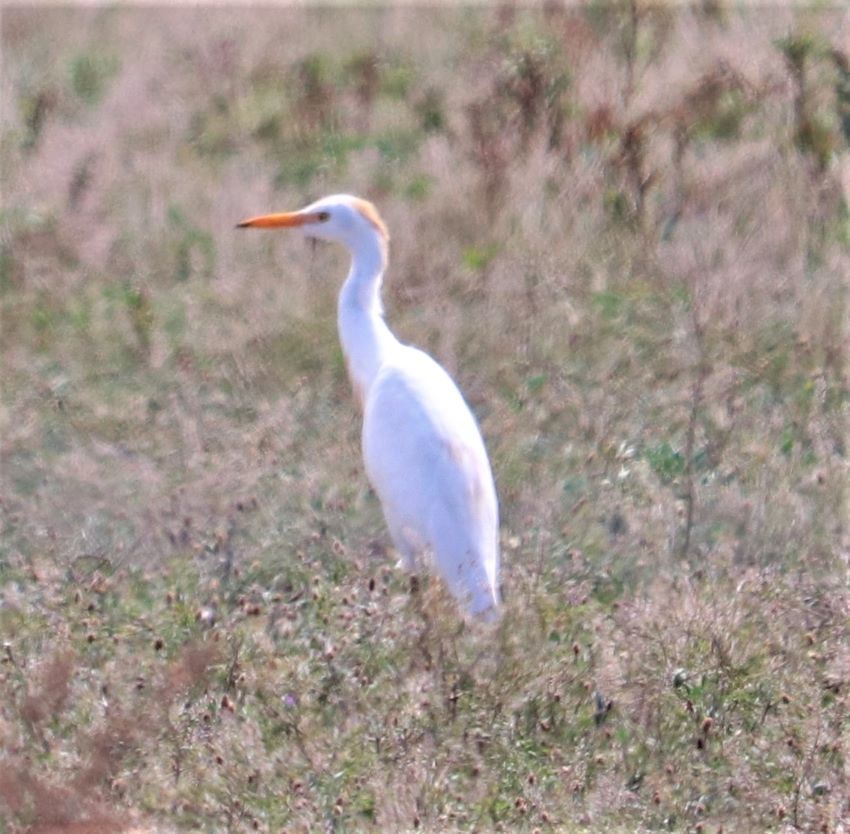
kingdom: Animalia
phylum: Chordata
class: Aves
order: Pelecaniformes
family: Ardeidae
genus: Bubulcus
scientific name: Bubulcus ibis
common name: Cattle egret
